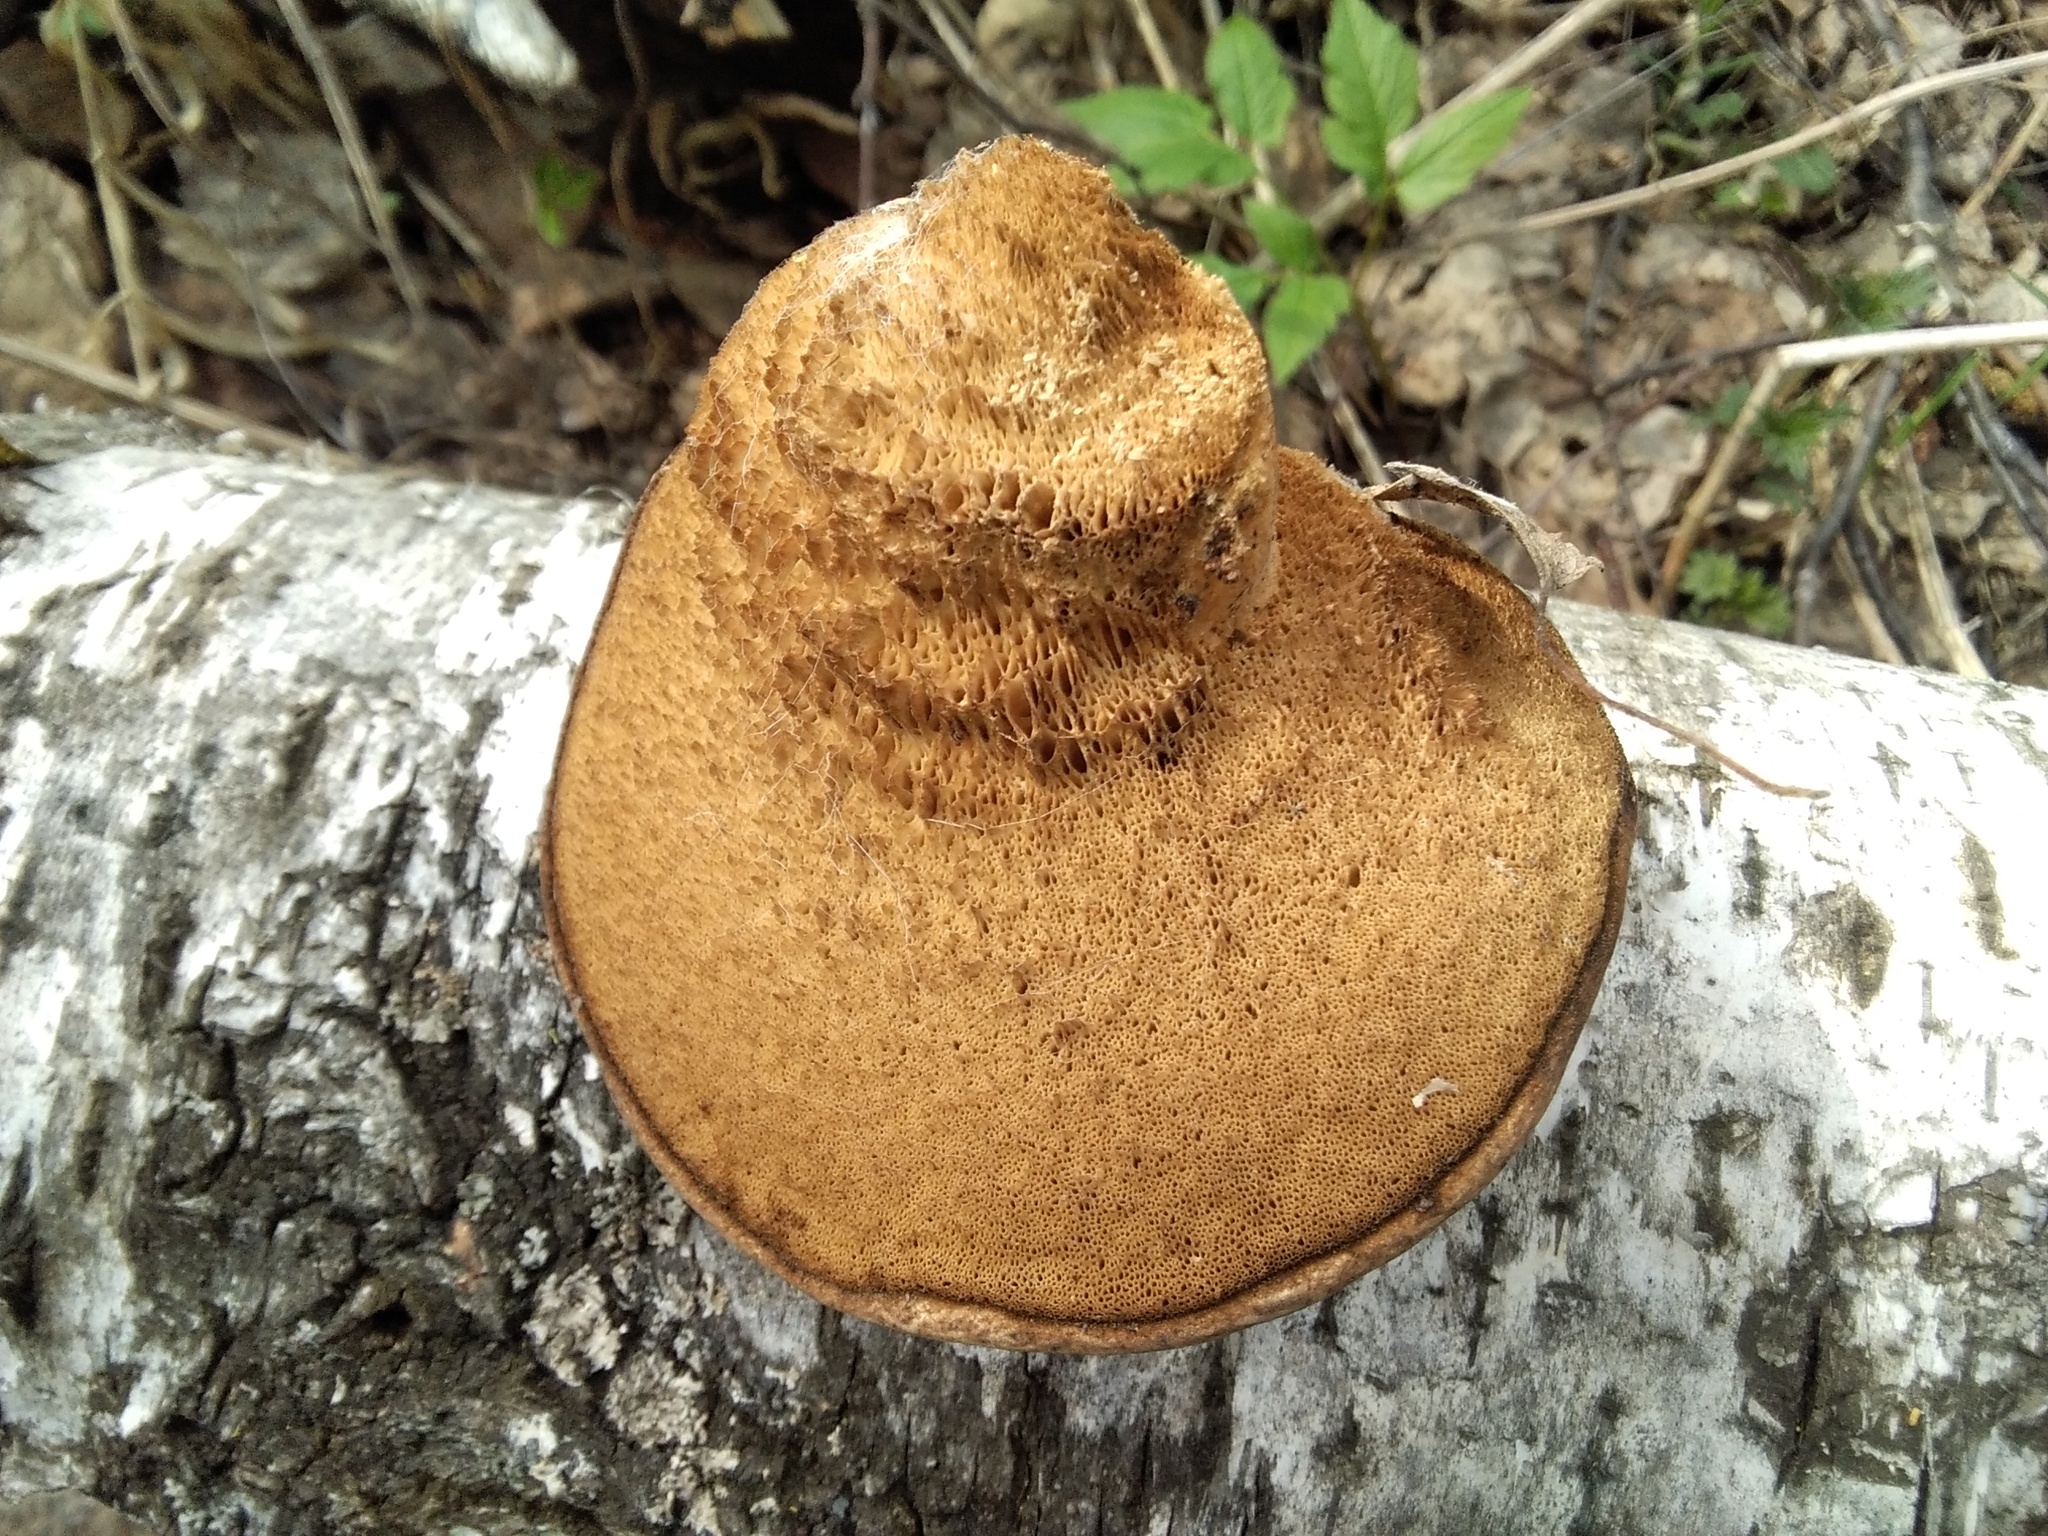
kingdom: Fungi
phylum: Basidiomycota
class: Agaricomycetes
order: Polyporales
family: Fomitopsidaceae
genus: Fomitopsis
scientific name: Fomitopsis betulina
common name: Birch polypore
